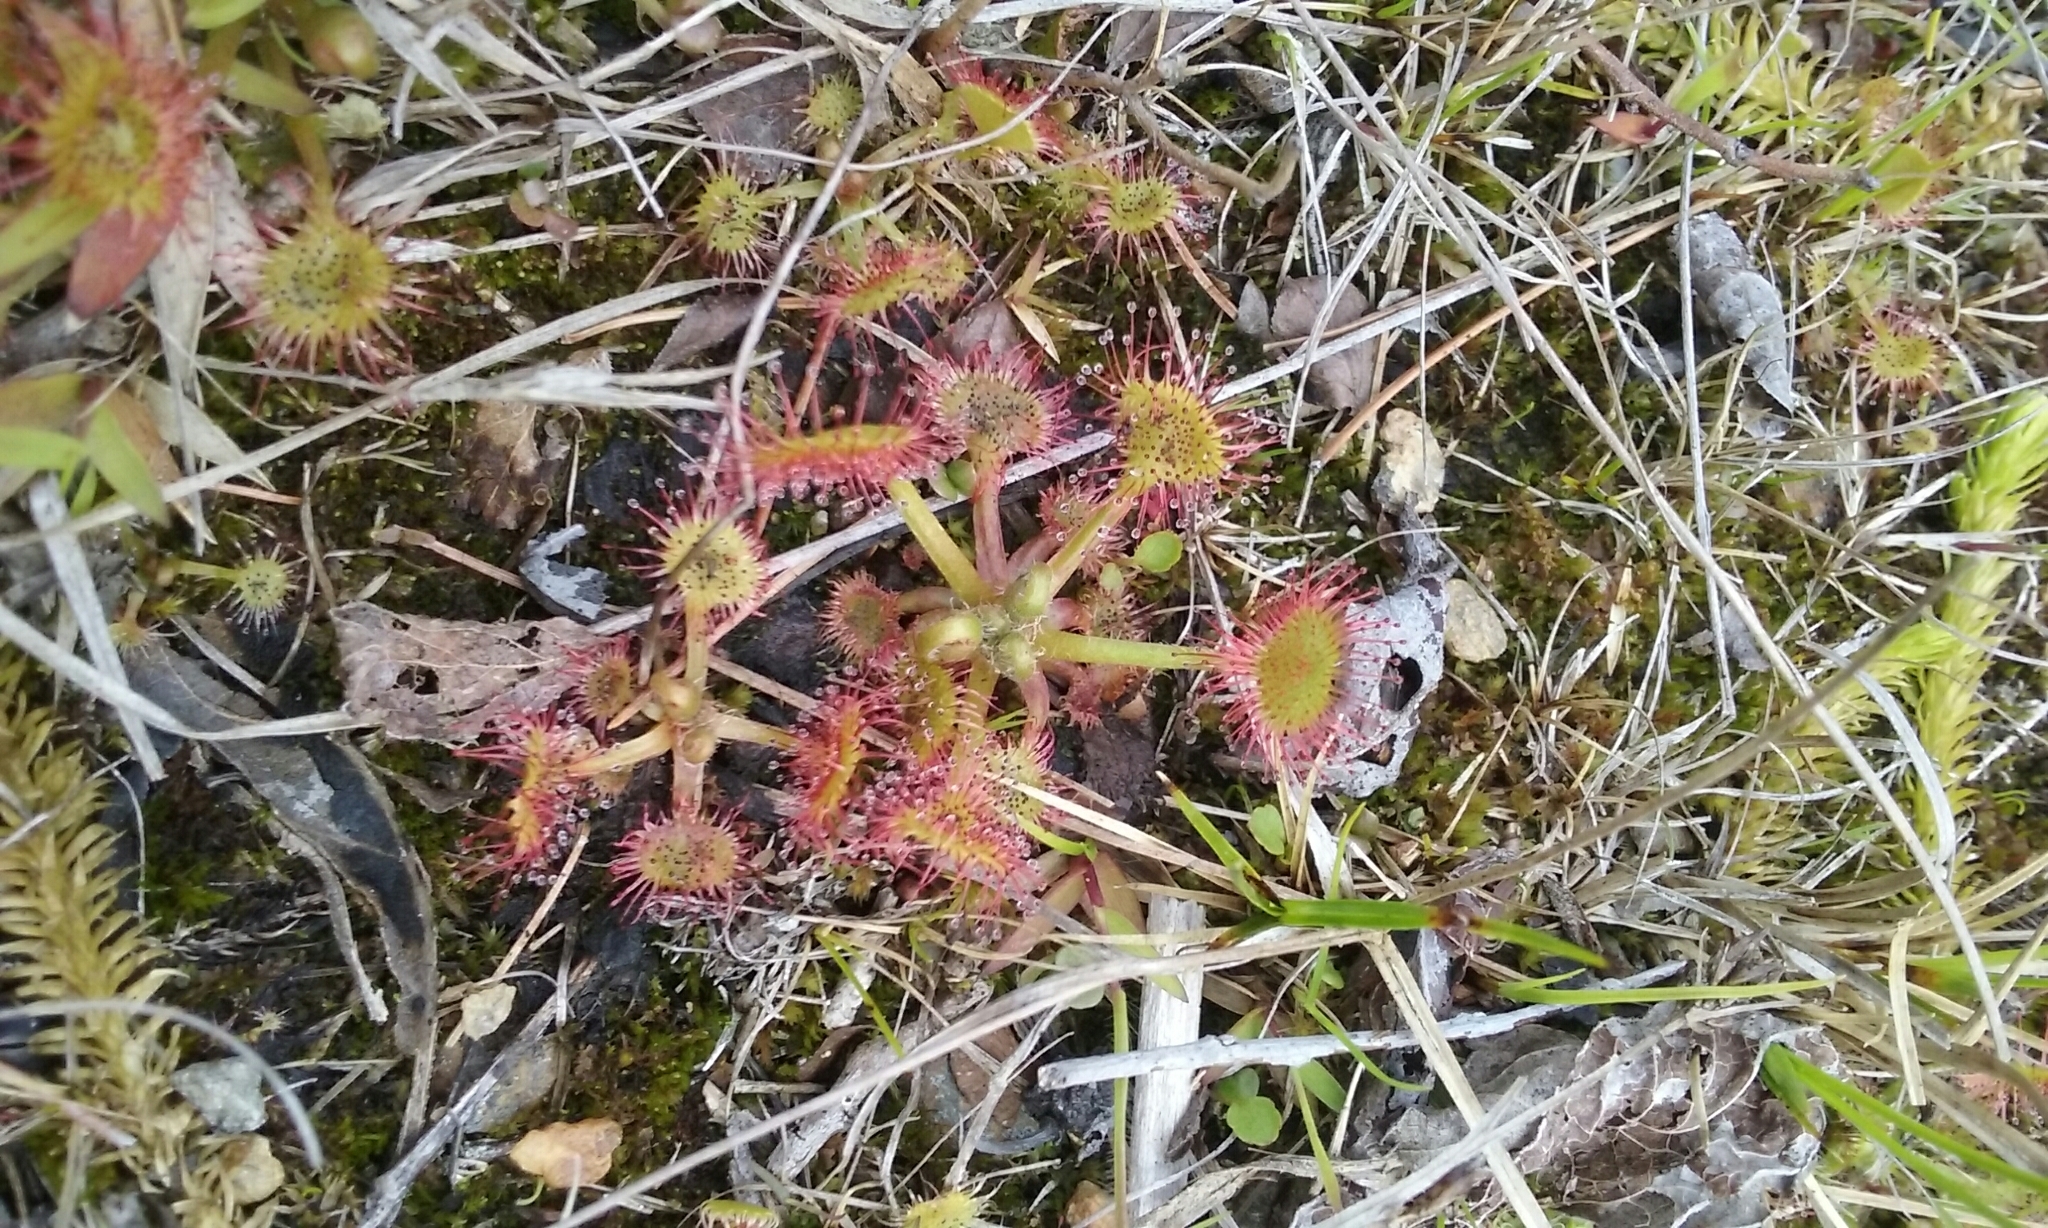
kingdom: Plantae
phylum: Tracheophyta
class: Magnoliopsida
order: Caryophyllales
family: Droseraceae
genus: Drosera
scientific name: Drosera rotundifolia
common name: Round-leaved sundew
